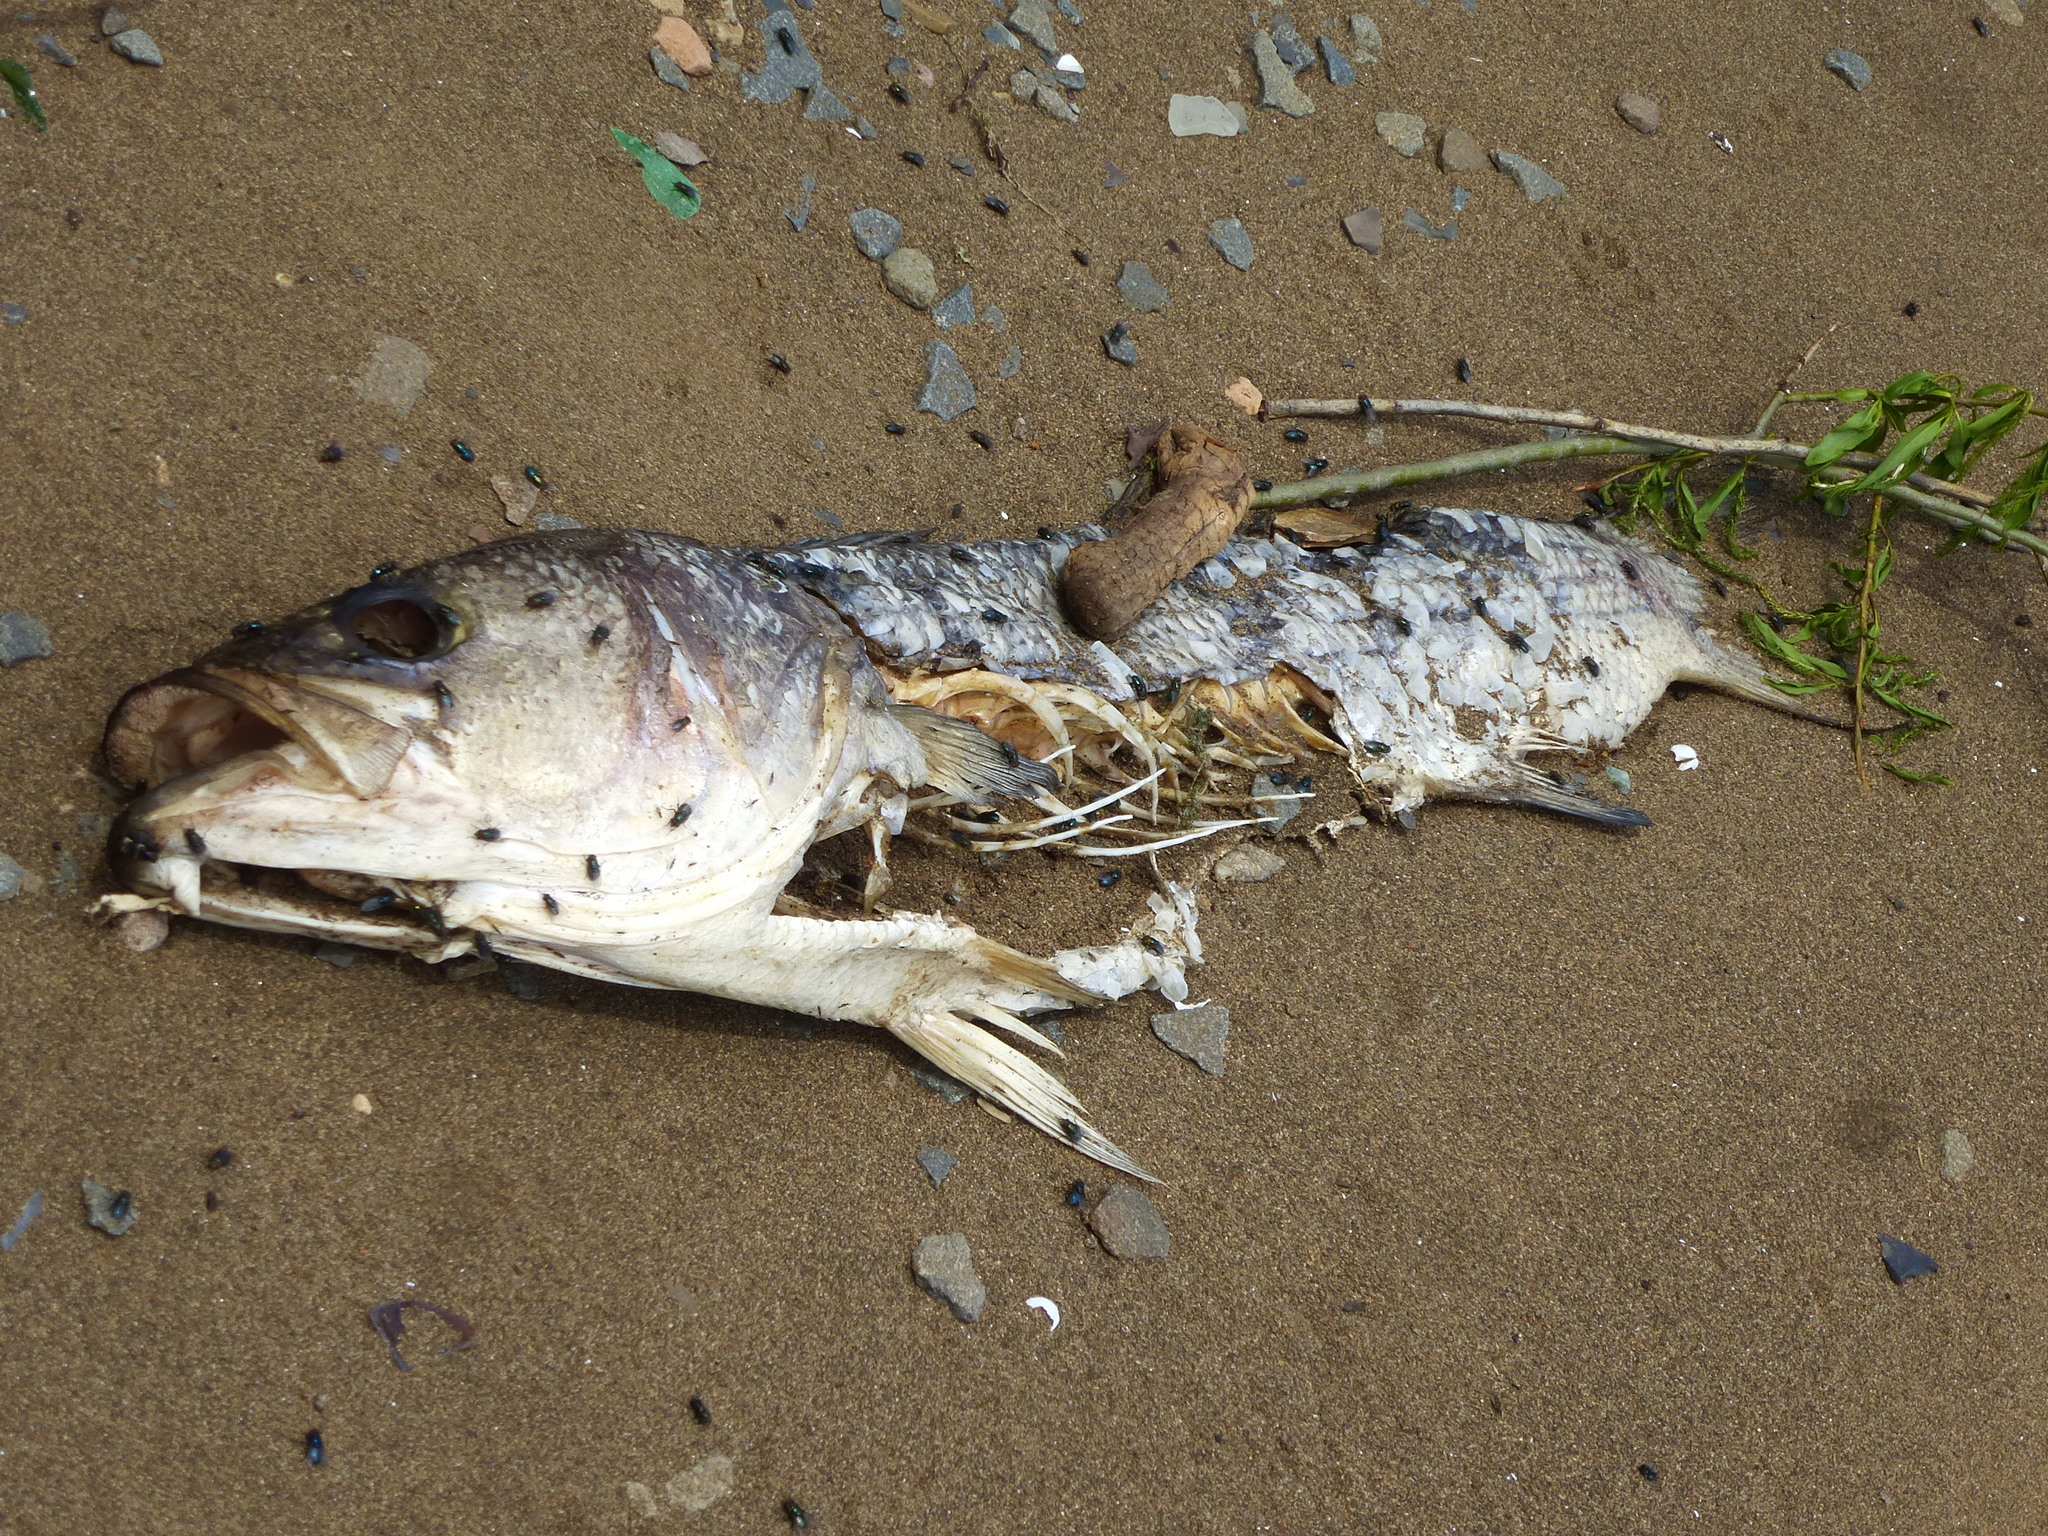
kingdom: Animalia
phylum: Chordata
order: Perciformes
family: Moronidae
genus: Morone
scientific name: Morone saxatilis
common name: Striped bass
